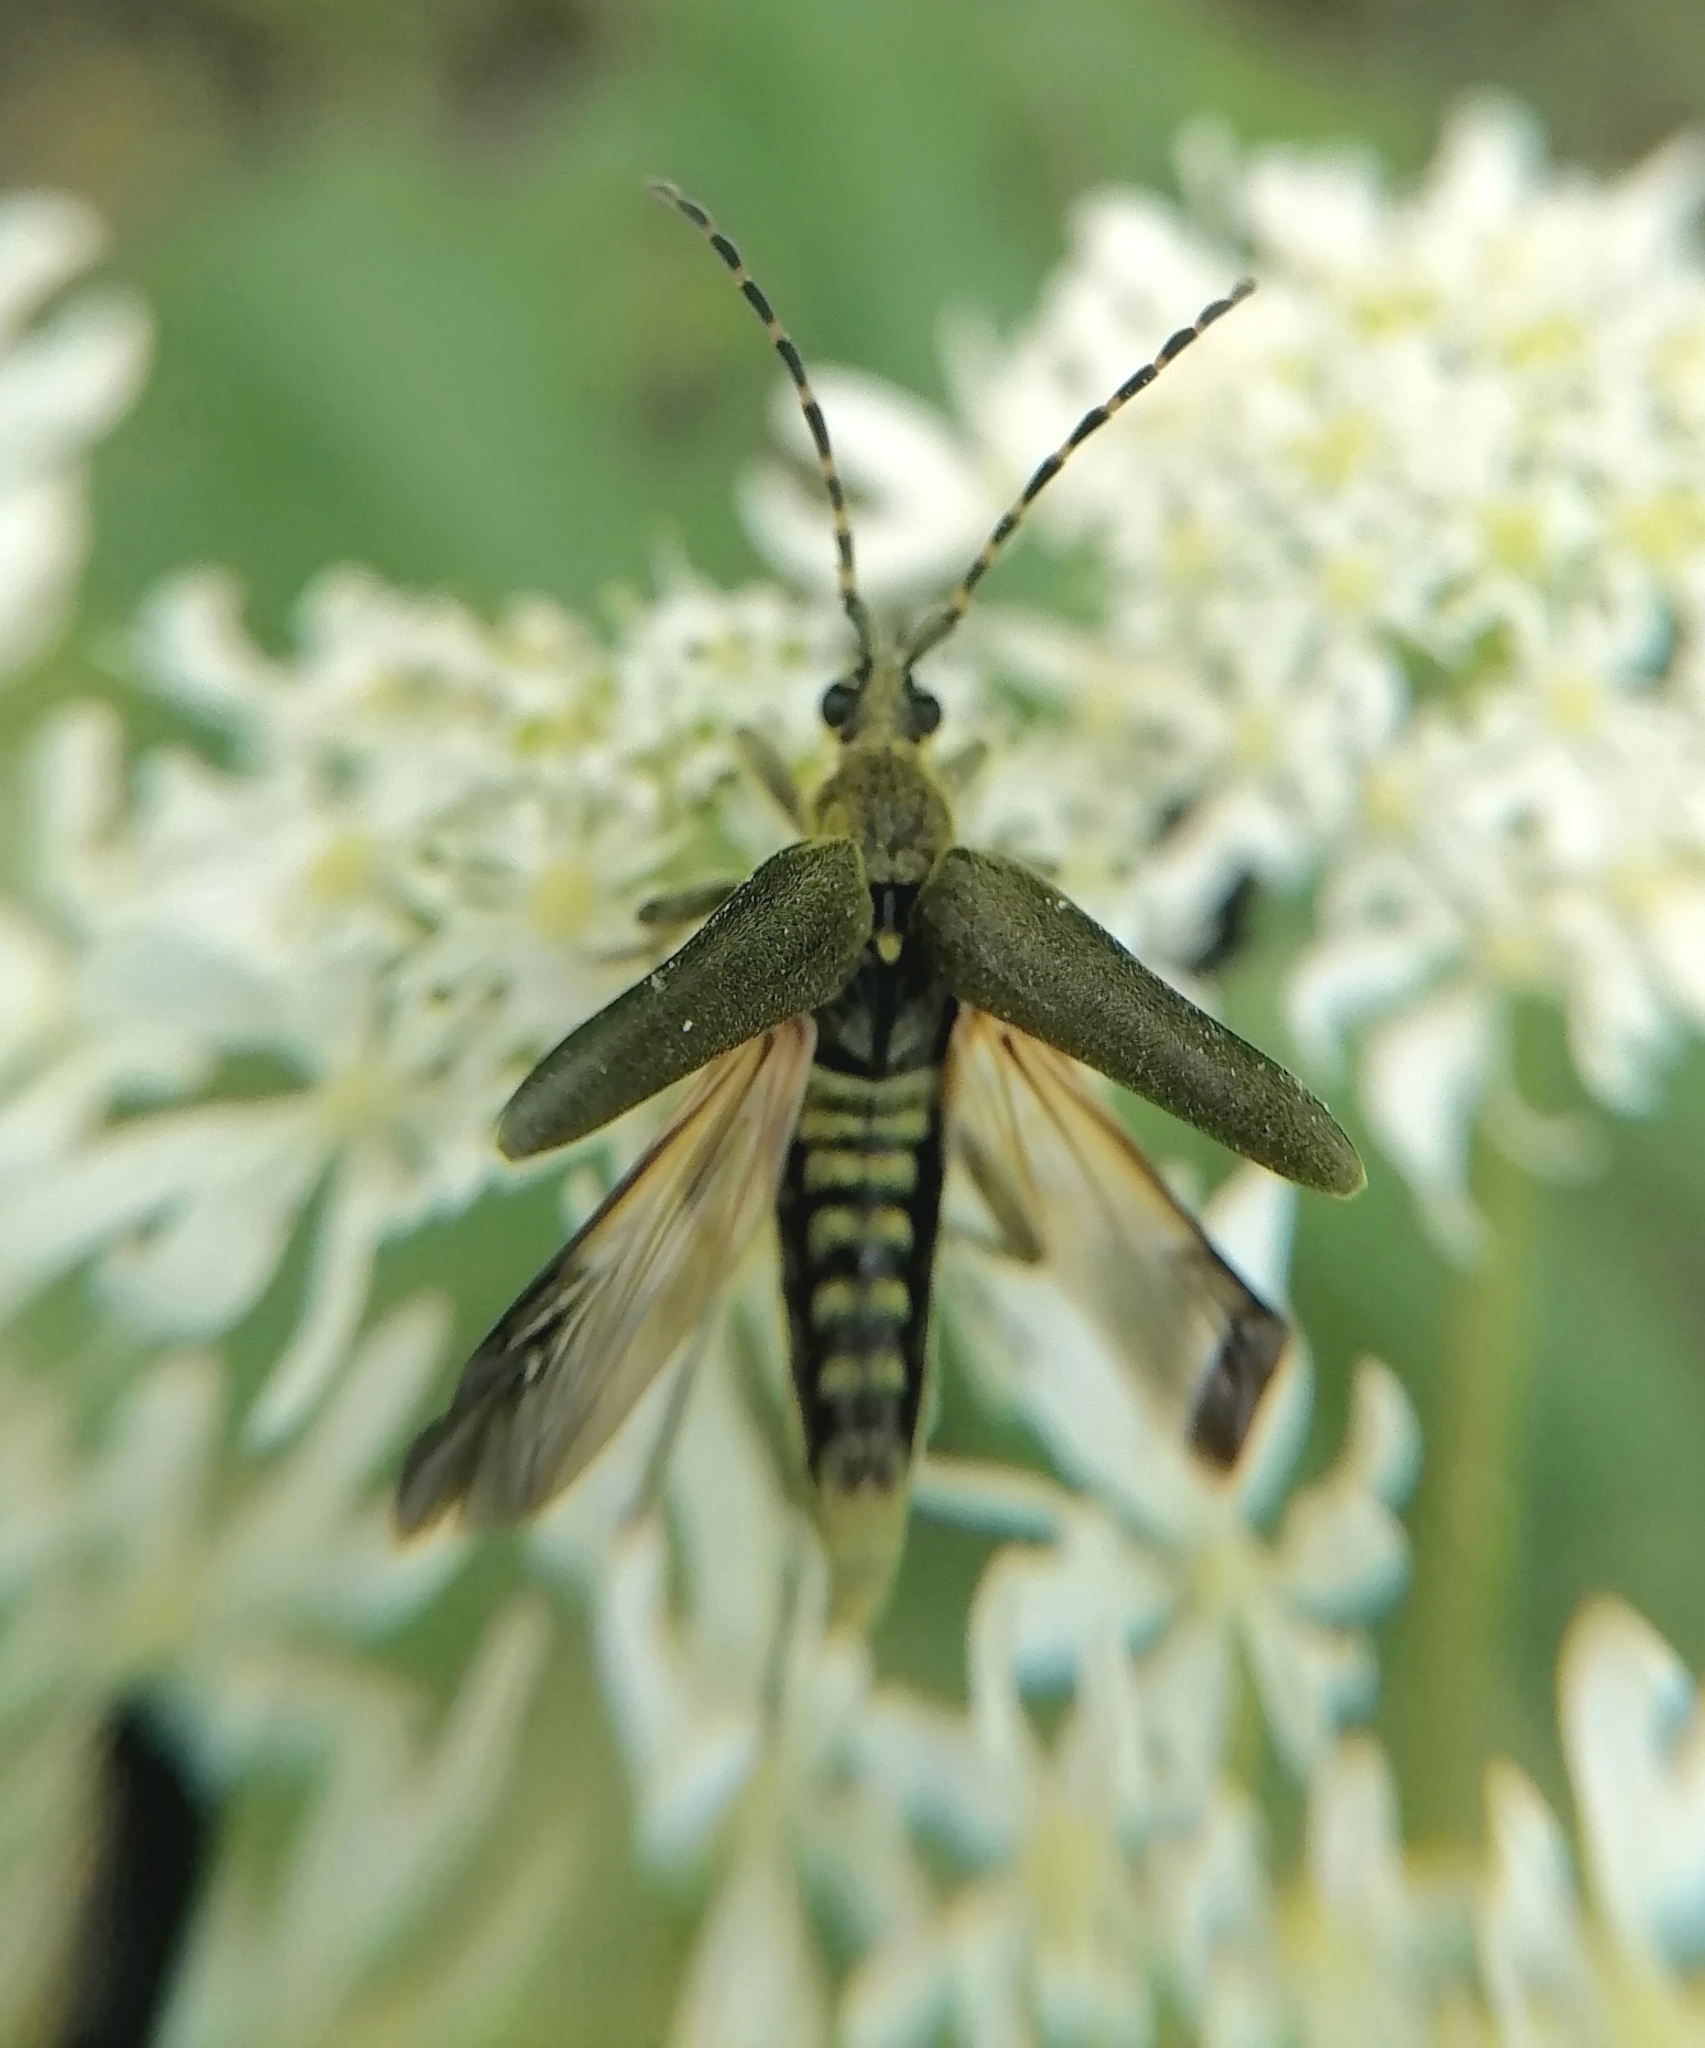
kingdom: Animalia
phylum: Arthropoda
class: Insecta
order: Coleoptera
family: Cerambycidae
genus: Lepturobosca
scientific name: Lepturobosca virens
